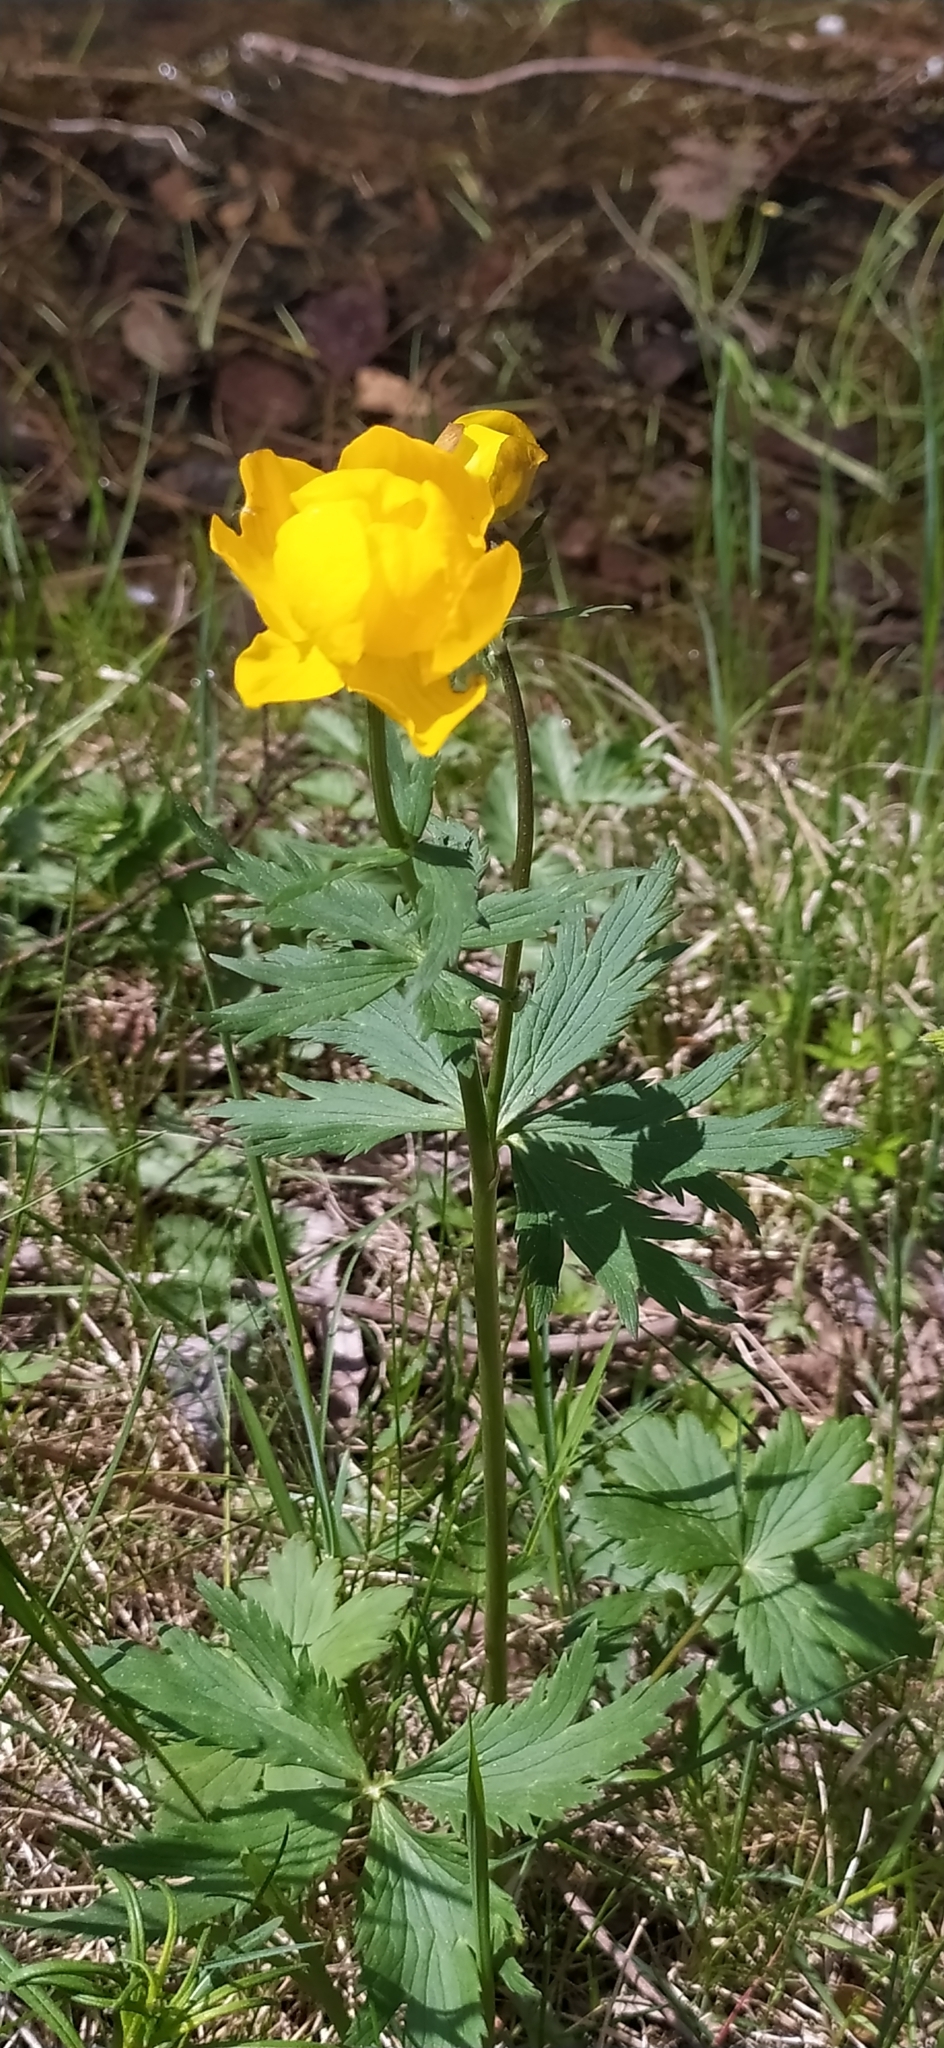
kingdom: Plantae
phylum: Tracheophyta
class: Magnoliopsida
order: Ranunculales
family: Ranunculaceae
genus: Trollius
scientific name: Trollius europaeus
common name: European globeflower
